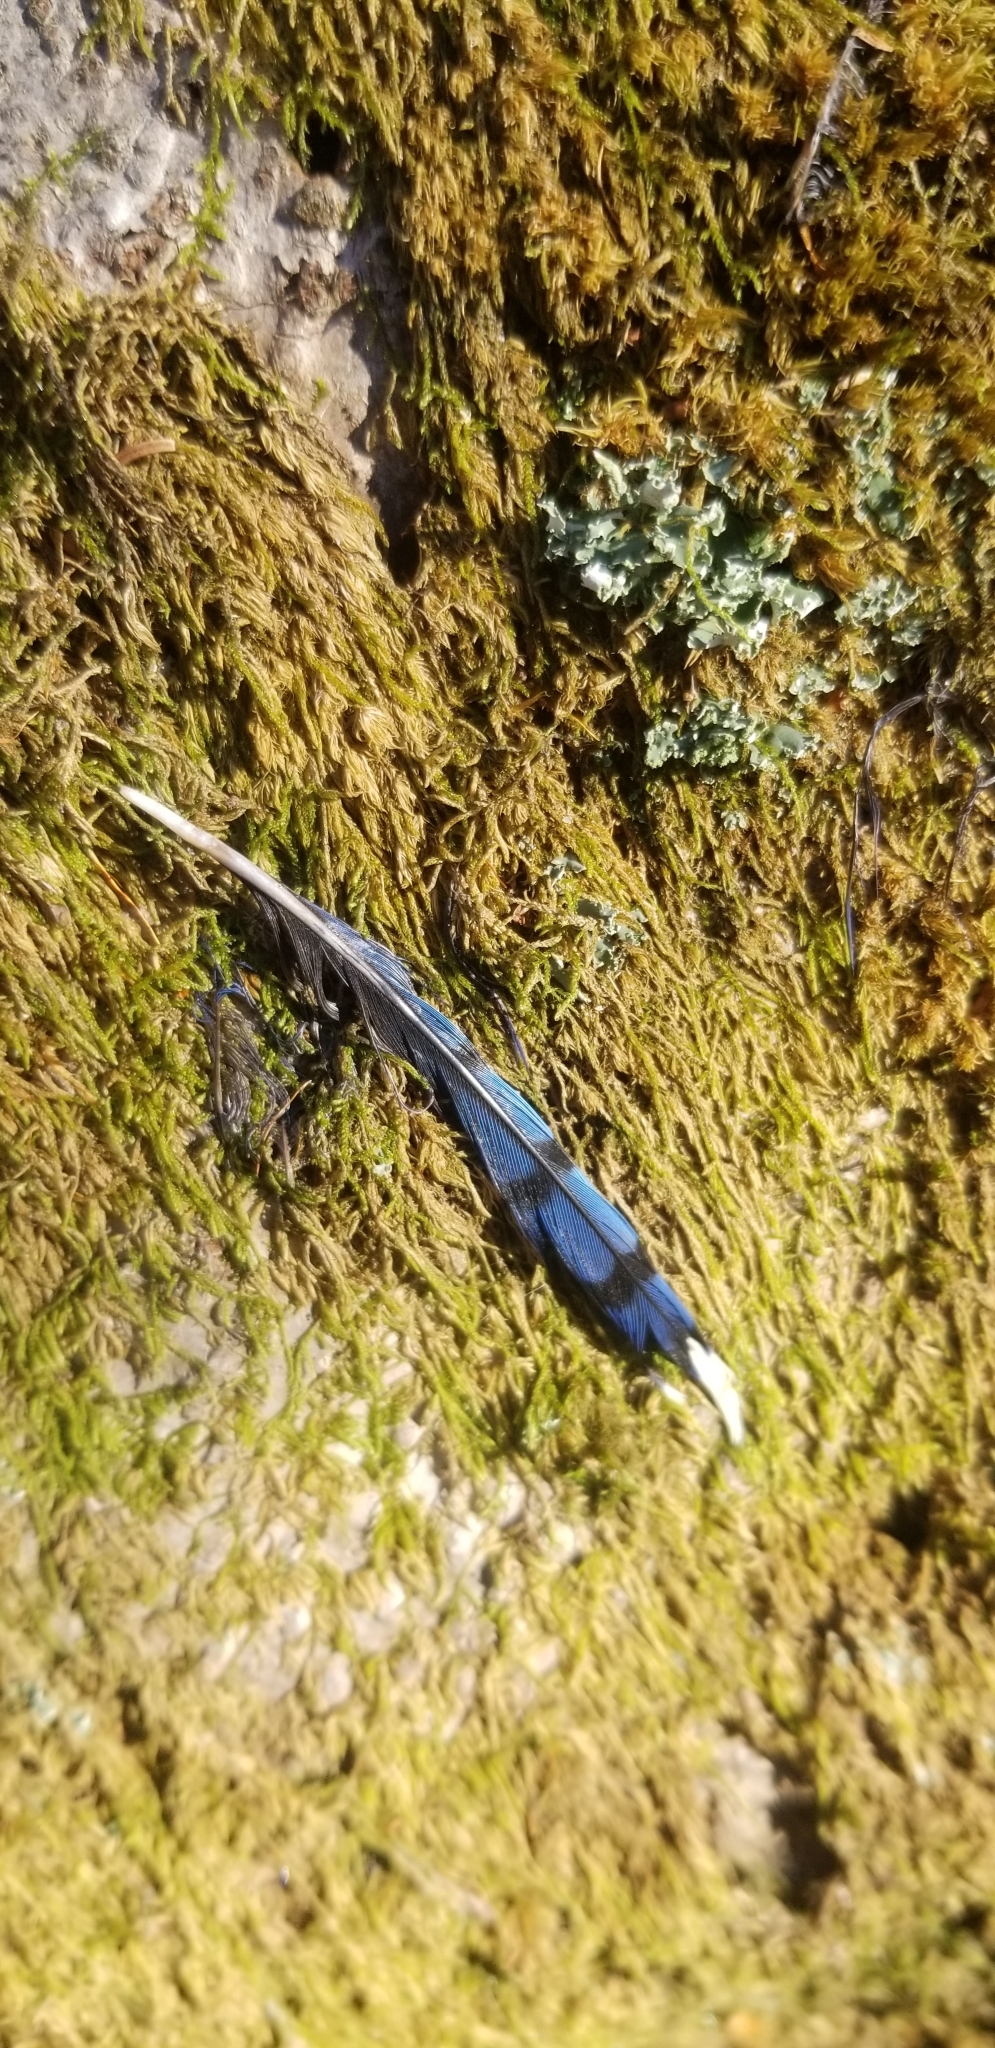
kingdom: Animalia
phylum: Chordata
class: Aves
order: Passeriformes
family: Corvidae
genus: Cyanocitta
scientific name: Cyanocitta cristata
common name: Blue jay
